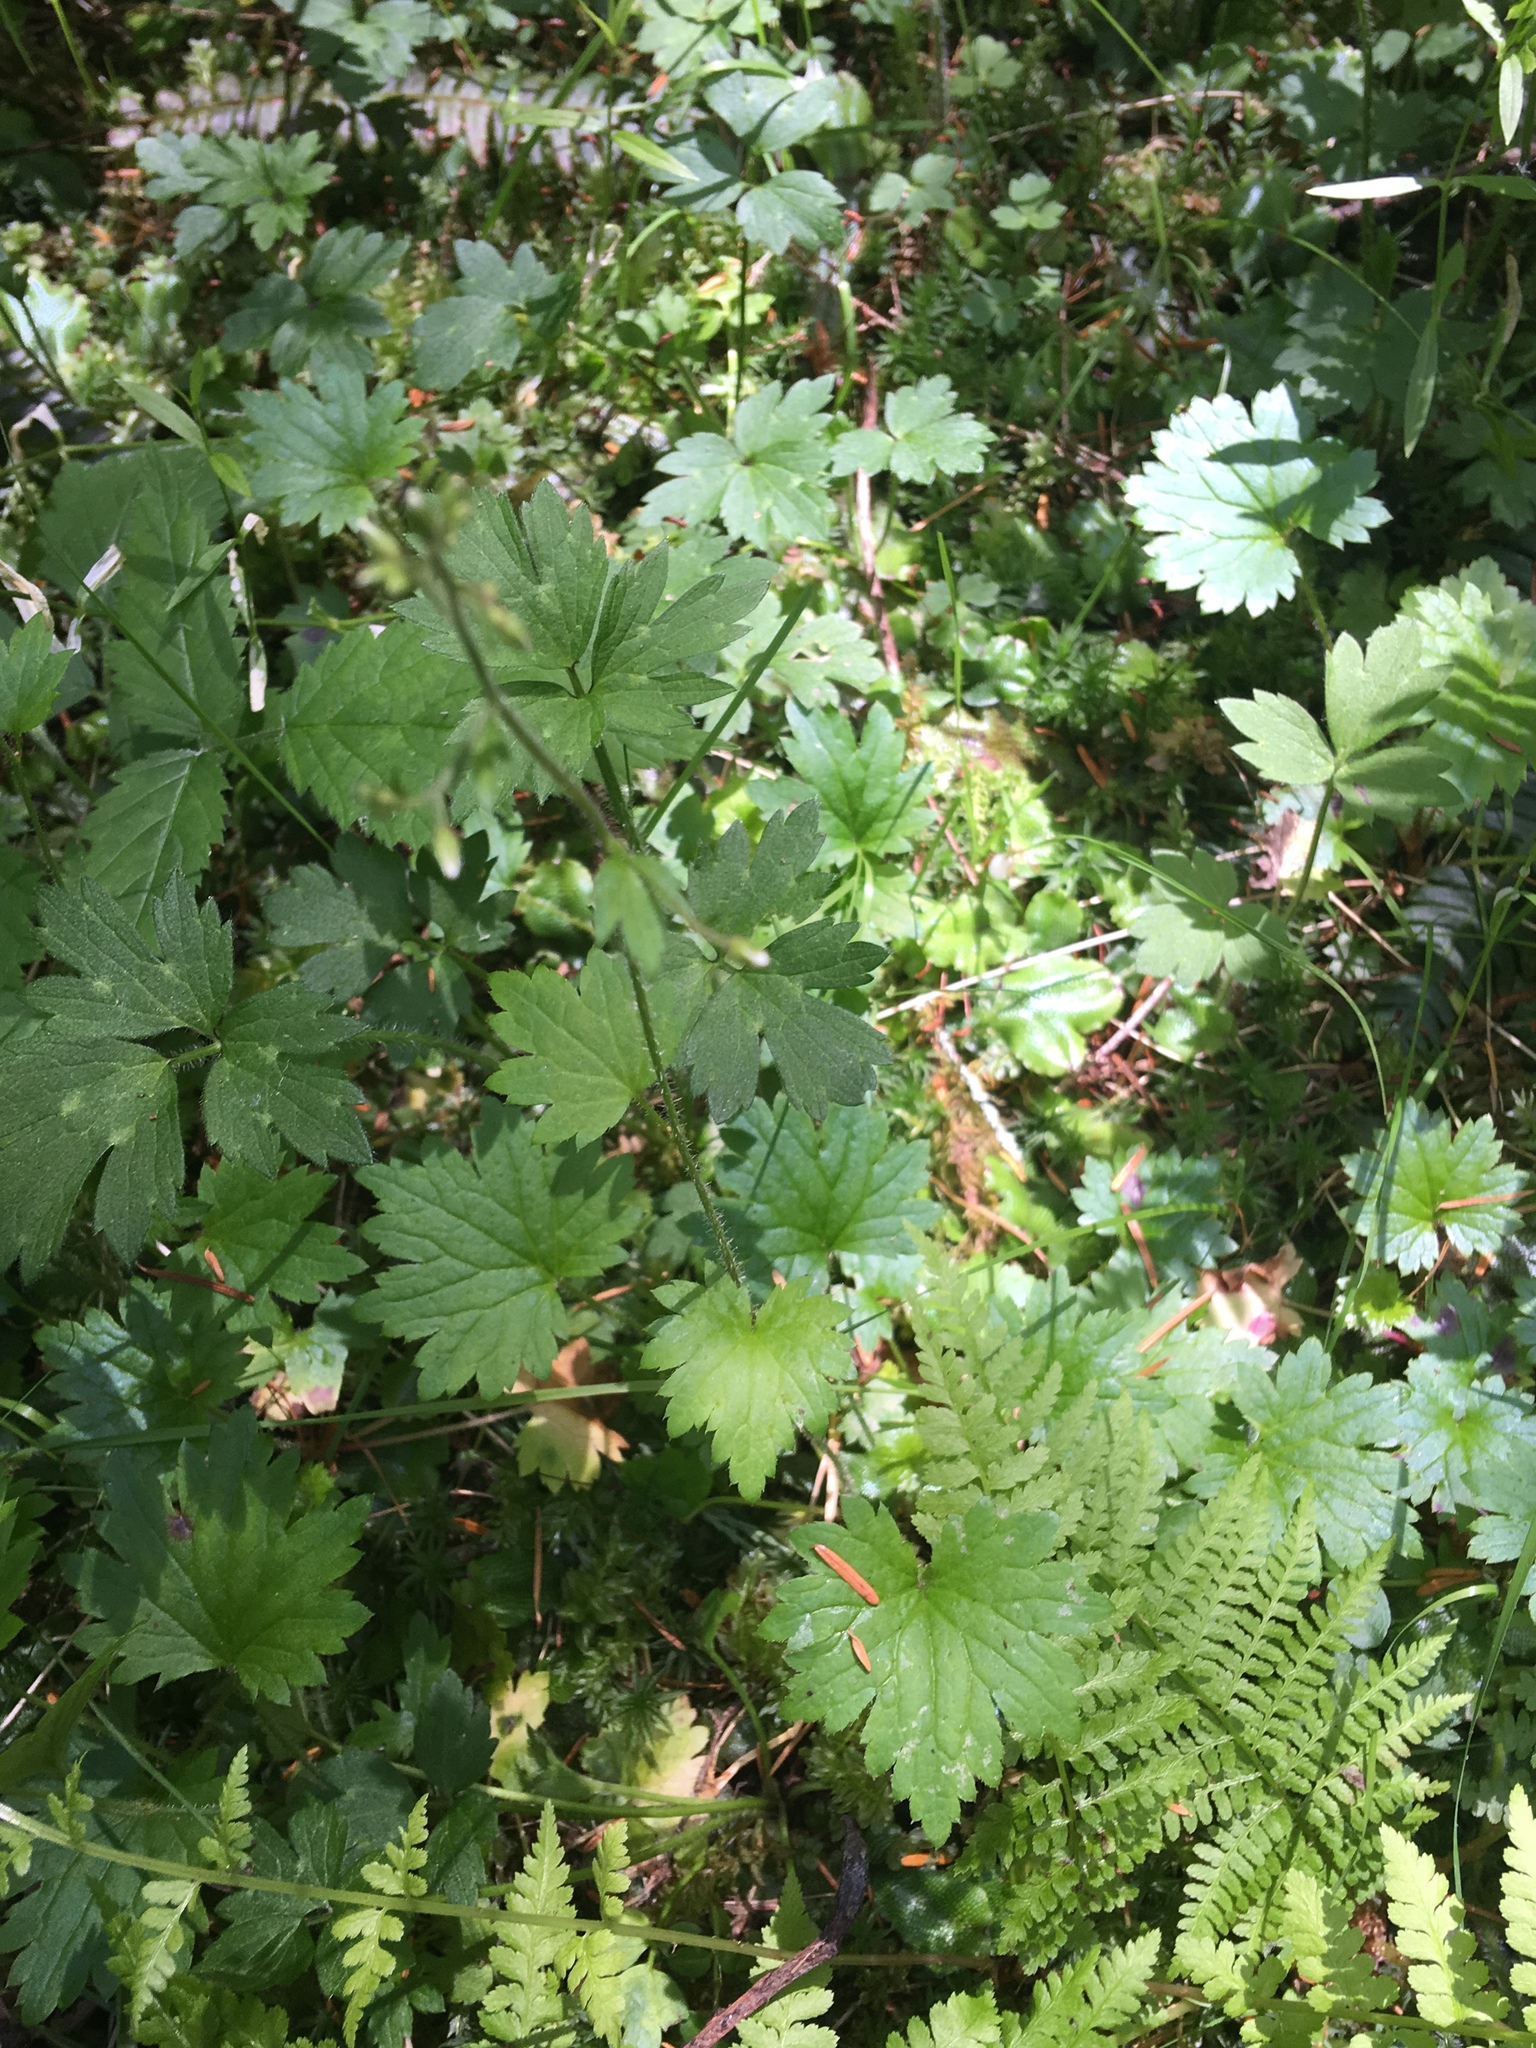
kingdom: Plantae
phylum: Tracheophyta
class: Magnoliopsida
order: Saxifragales
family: Saxifragaceae
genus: Boykinia
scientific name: Boykinia occidentalis
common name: Coast boykinia
